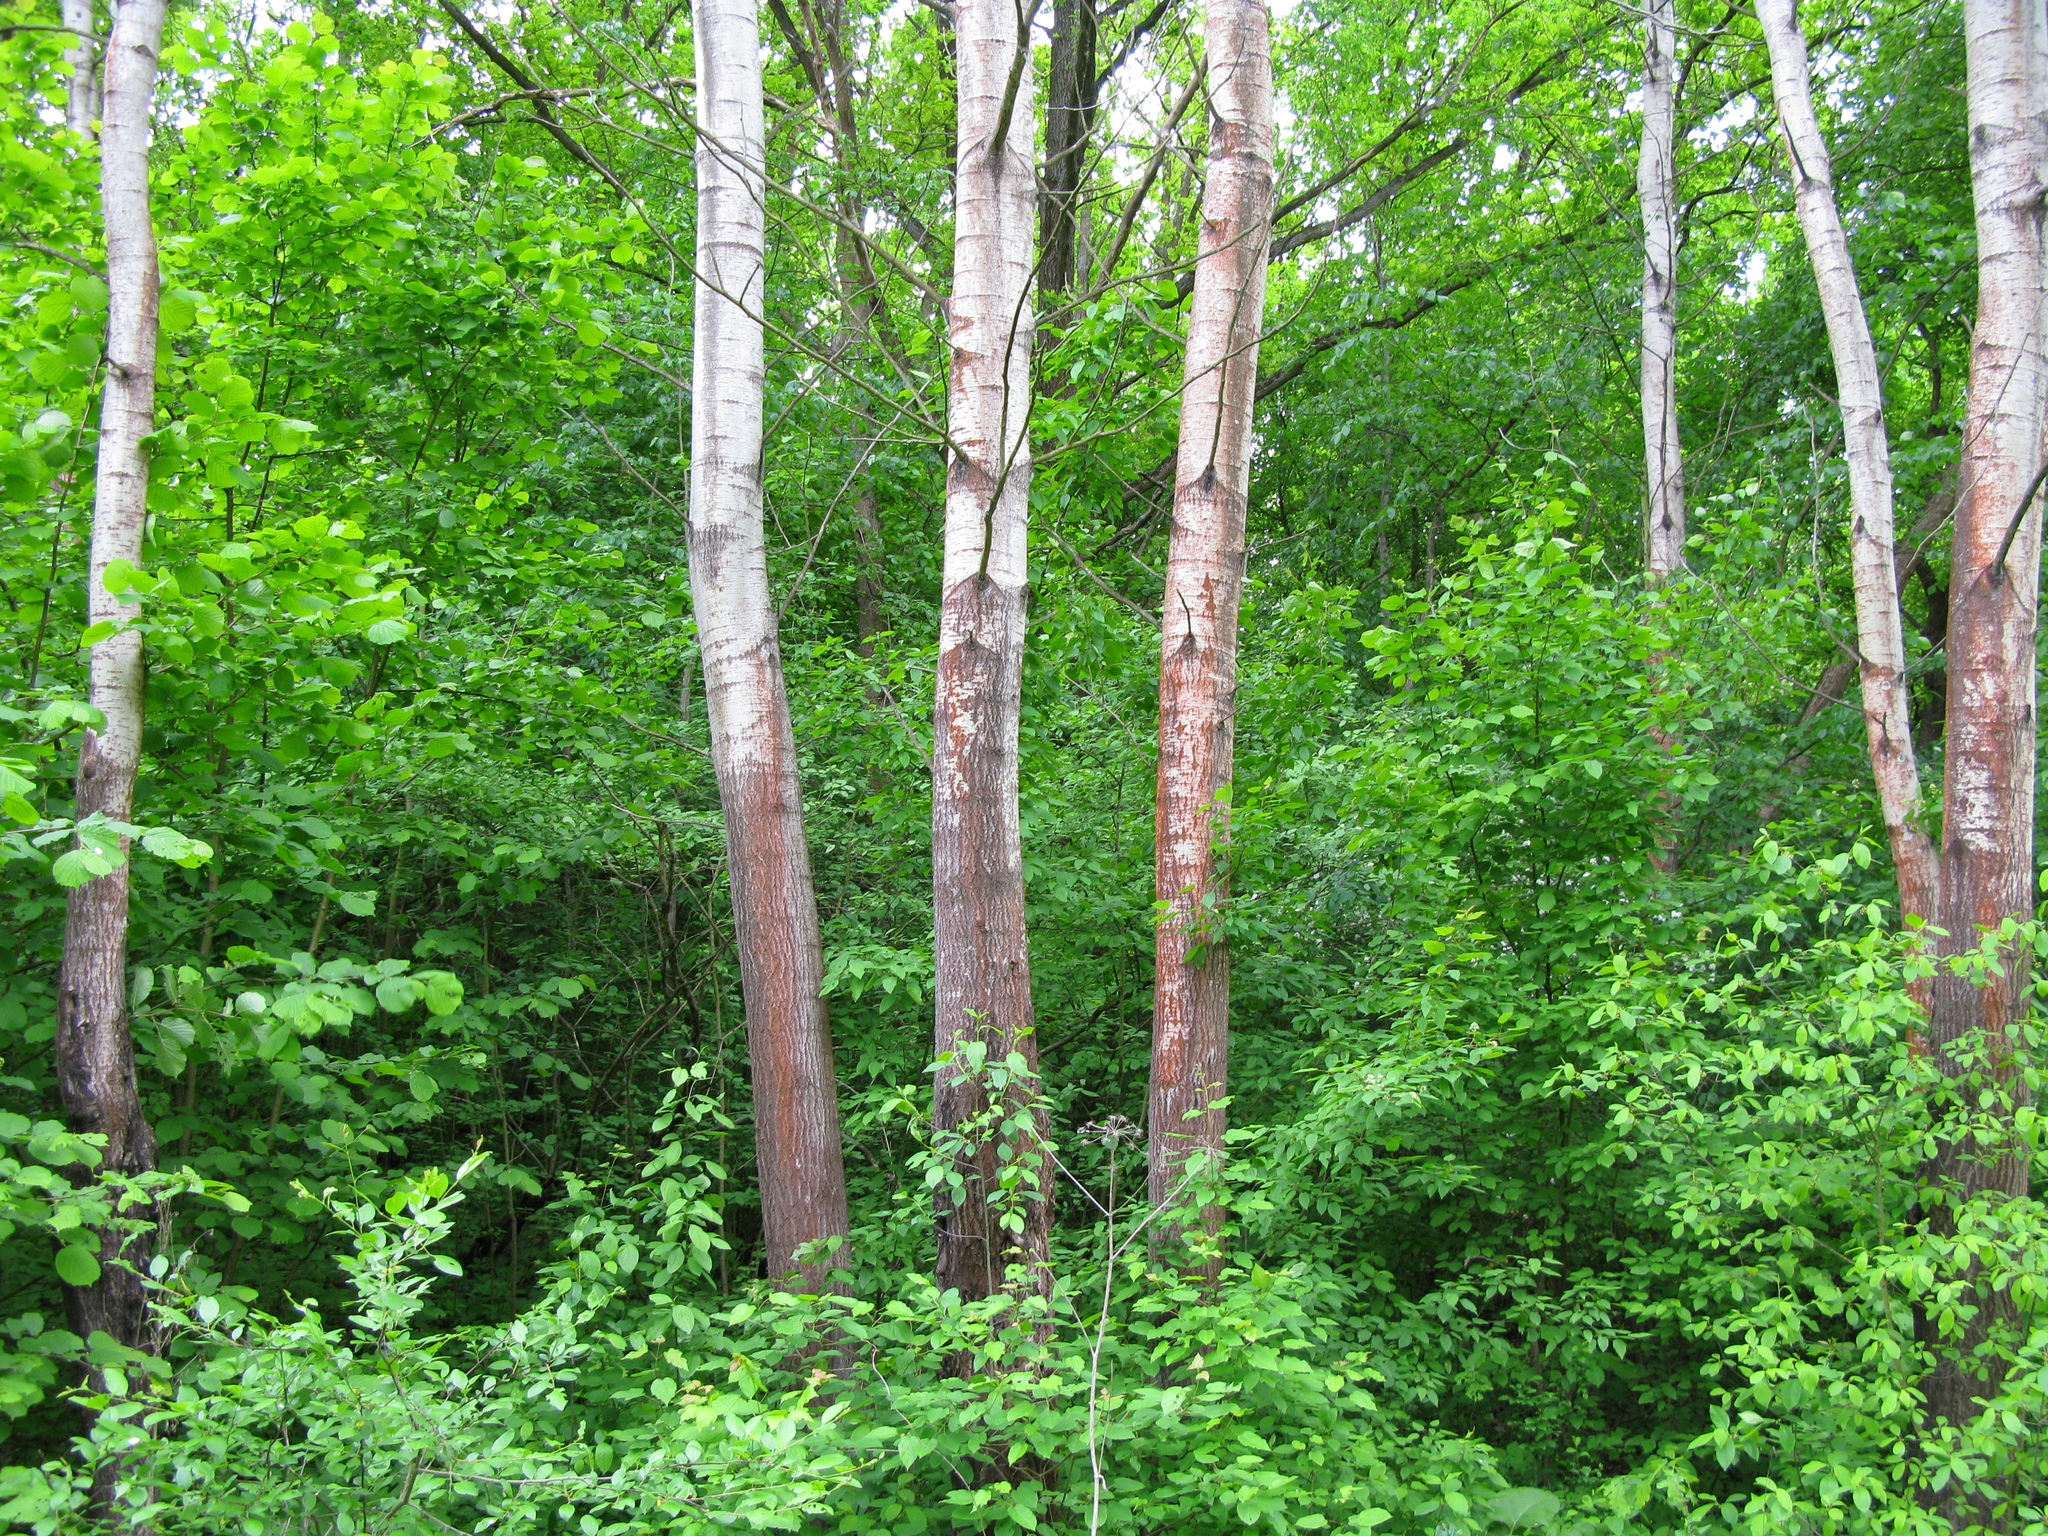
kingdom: Plantae
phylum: Tracheophyta
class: Magnoliopsida
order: Malpighiales
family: Salicaceae
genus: Populus
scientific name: Populus tremula
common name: European aspen
